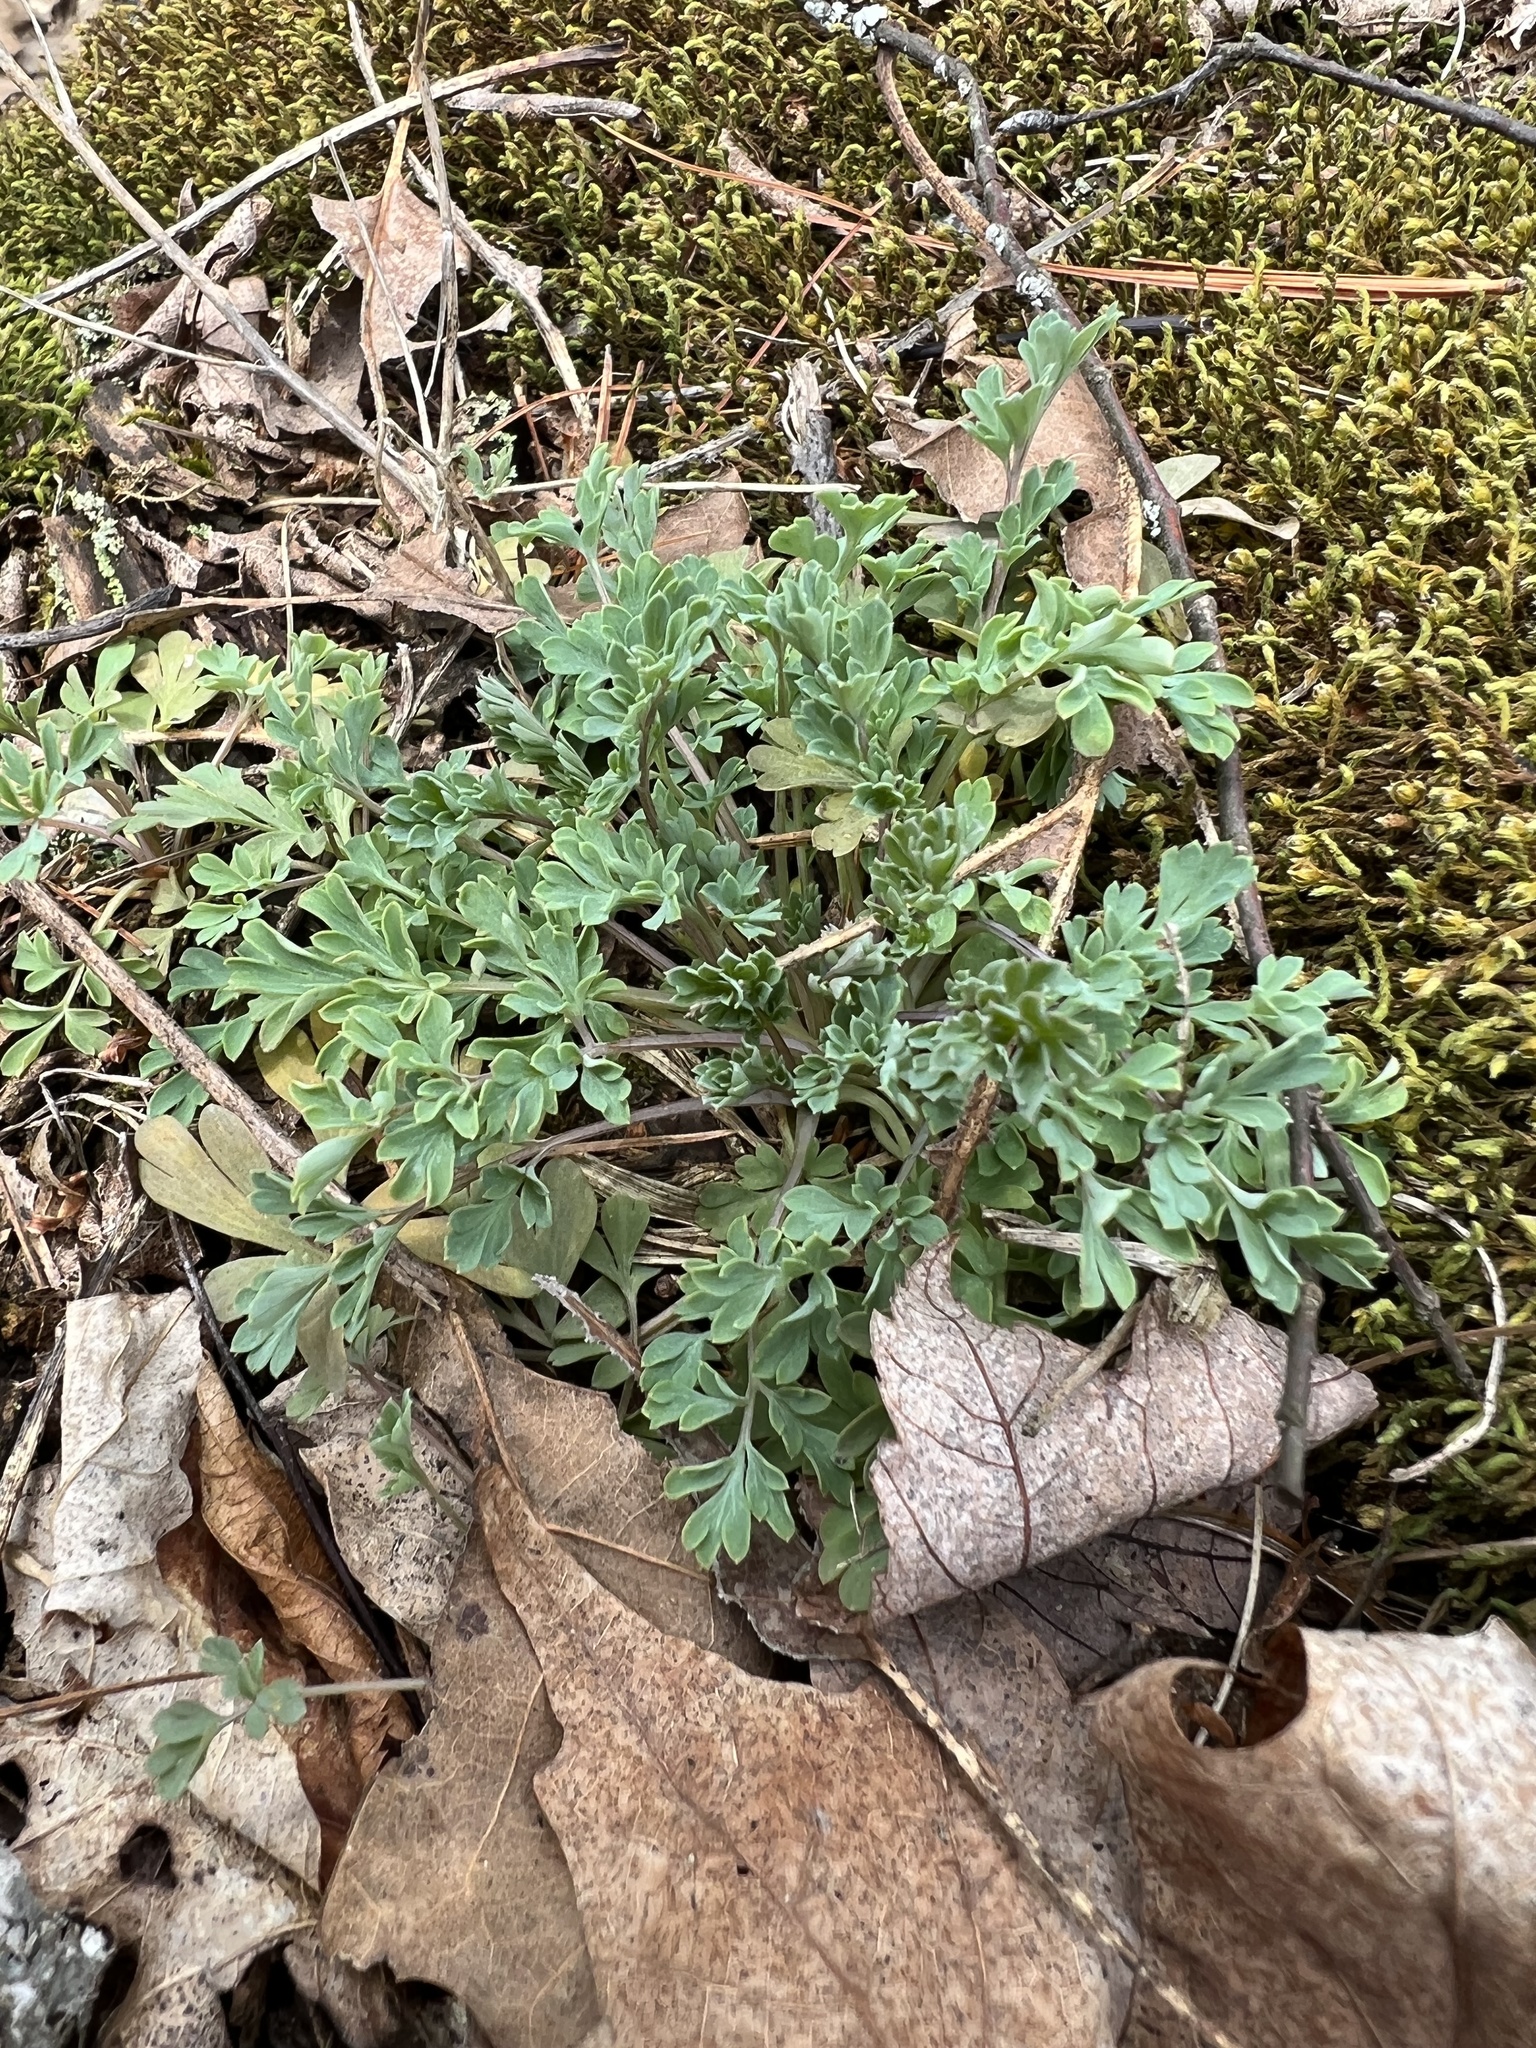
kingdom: Plantae
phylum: Tracheophyta
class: Magnoliopsida
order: Ranunculales
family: Papaveraceae
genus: Capnoides
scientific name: Capnoides sempervirens
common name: Rock harlequin
